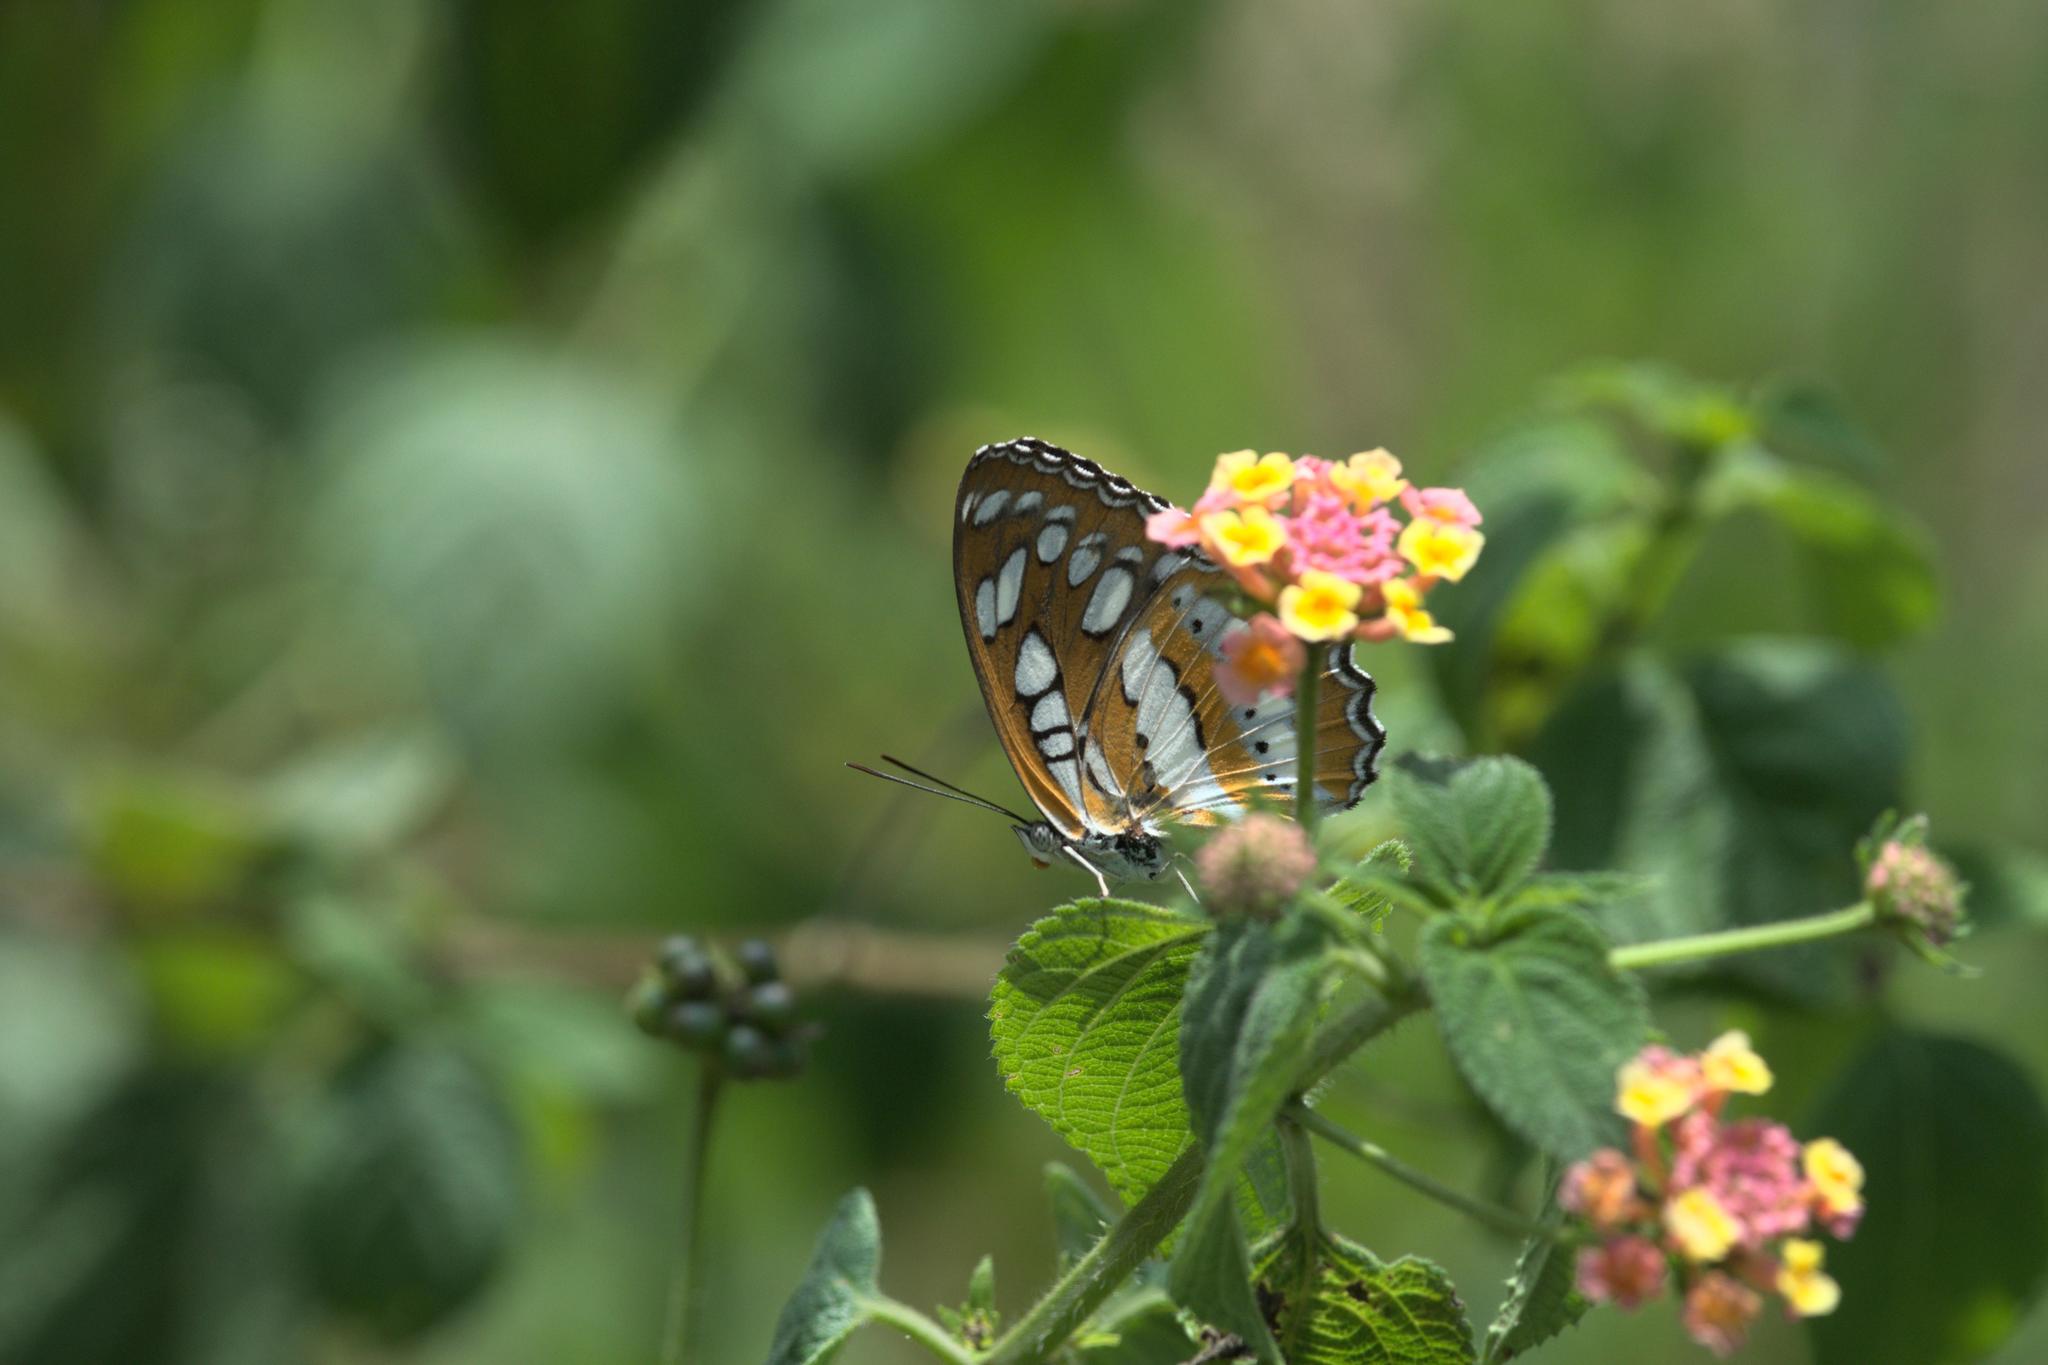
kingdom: Animalia
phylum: Arthropoda
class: Insecta
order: Lepidoptera
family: Nymphalidae
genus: Parathyma
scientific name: Parathyma perius
